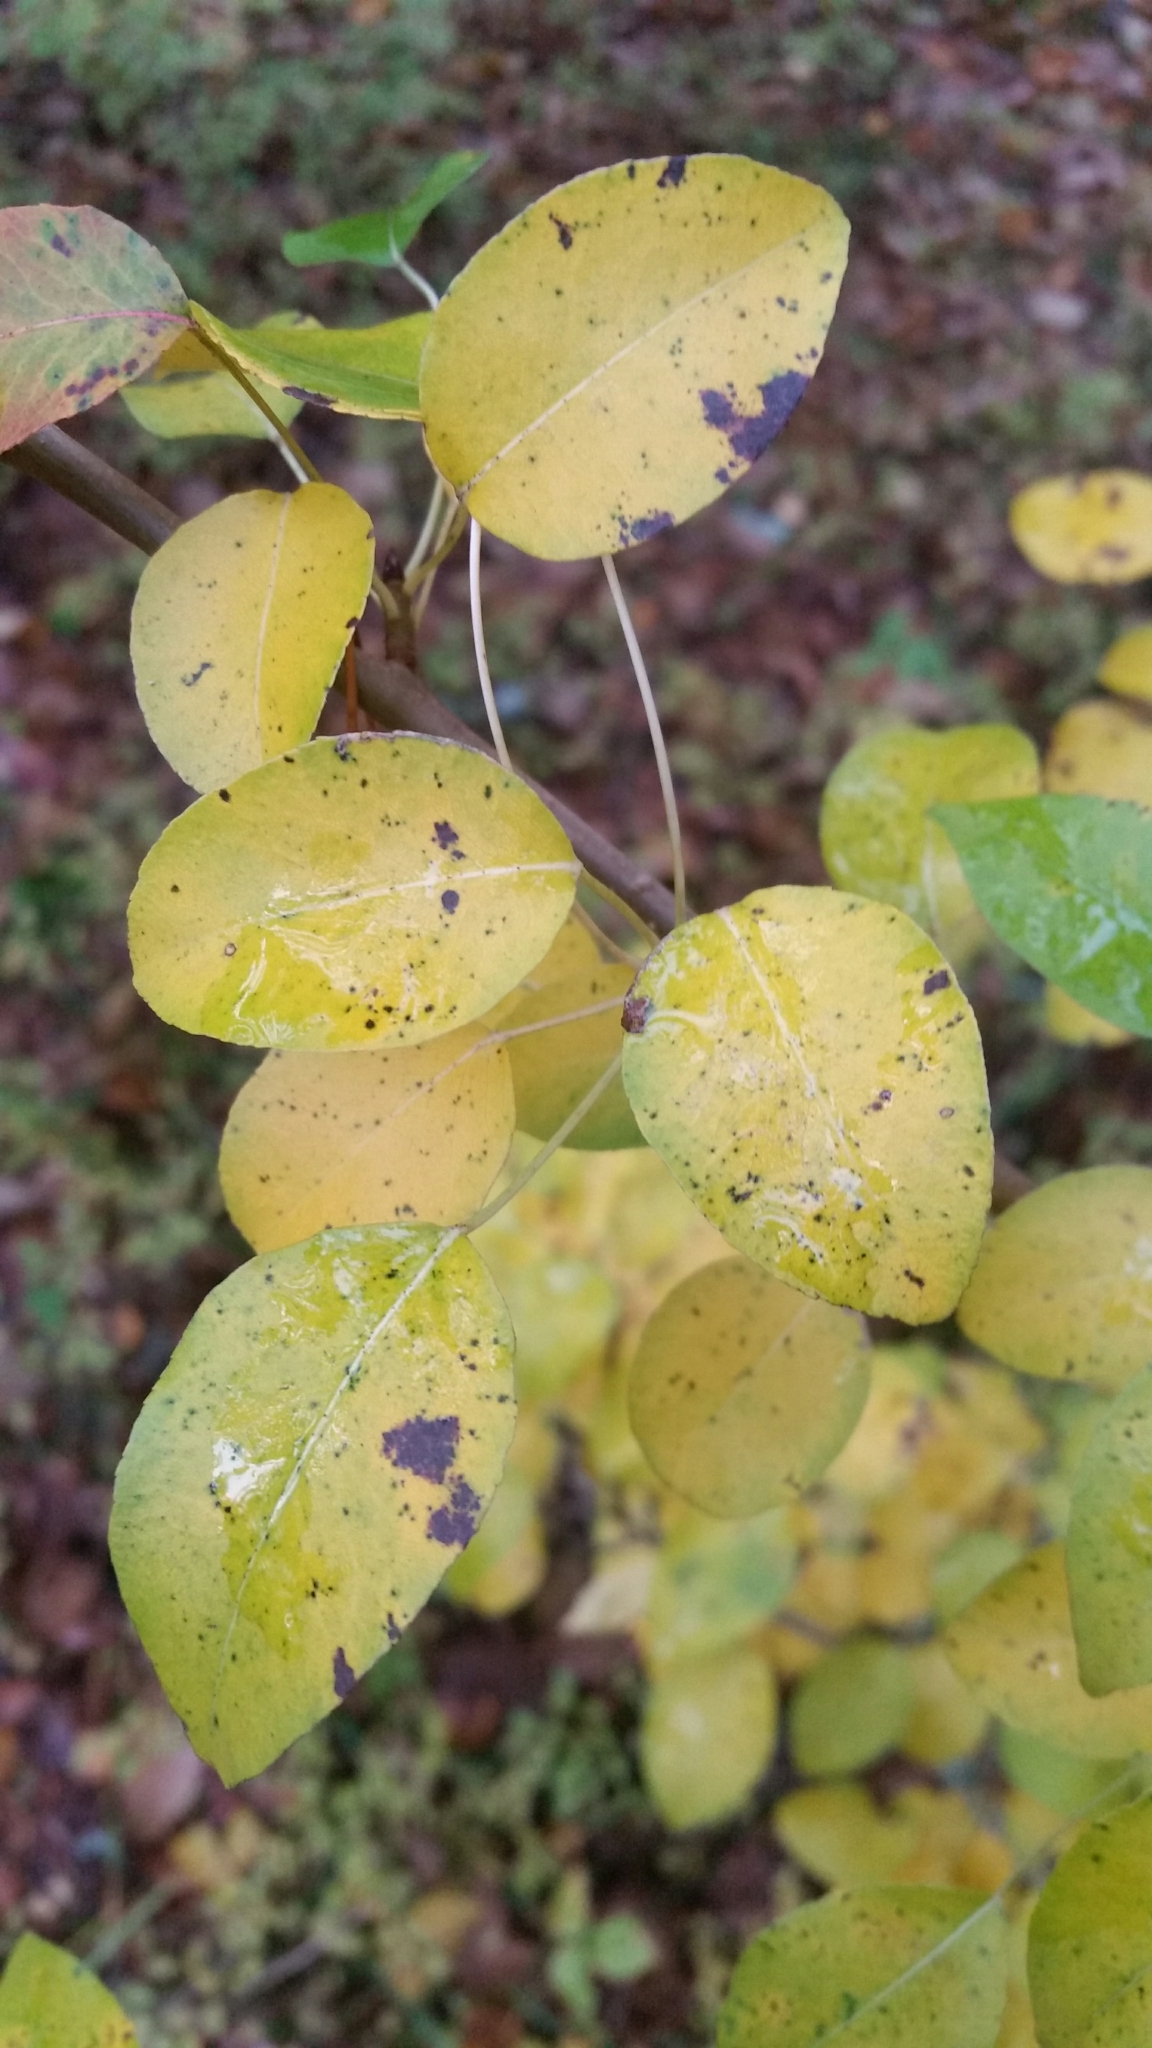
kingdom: Plantae
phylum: Tracheophyta
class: Magnoliopsida
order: Rosales
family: Rosaceae
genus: Pyrus
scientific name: Pyrus communis
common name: Pear
